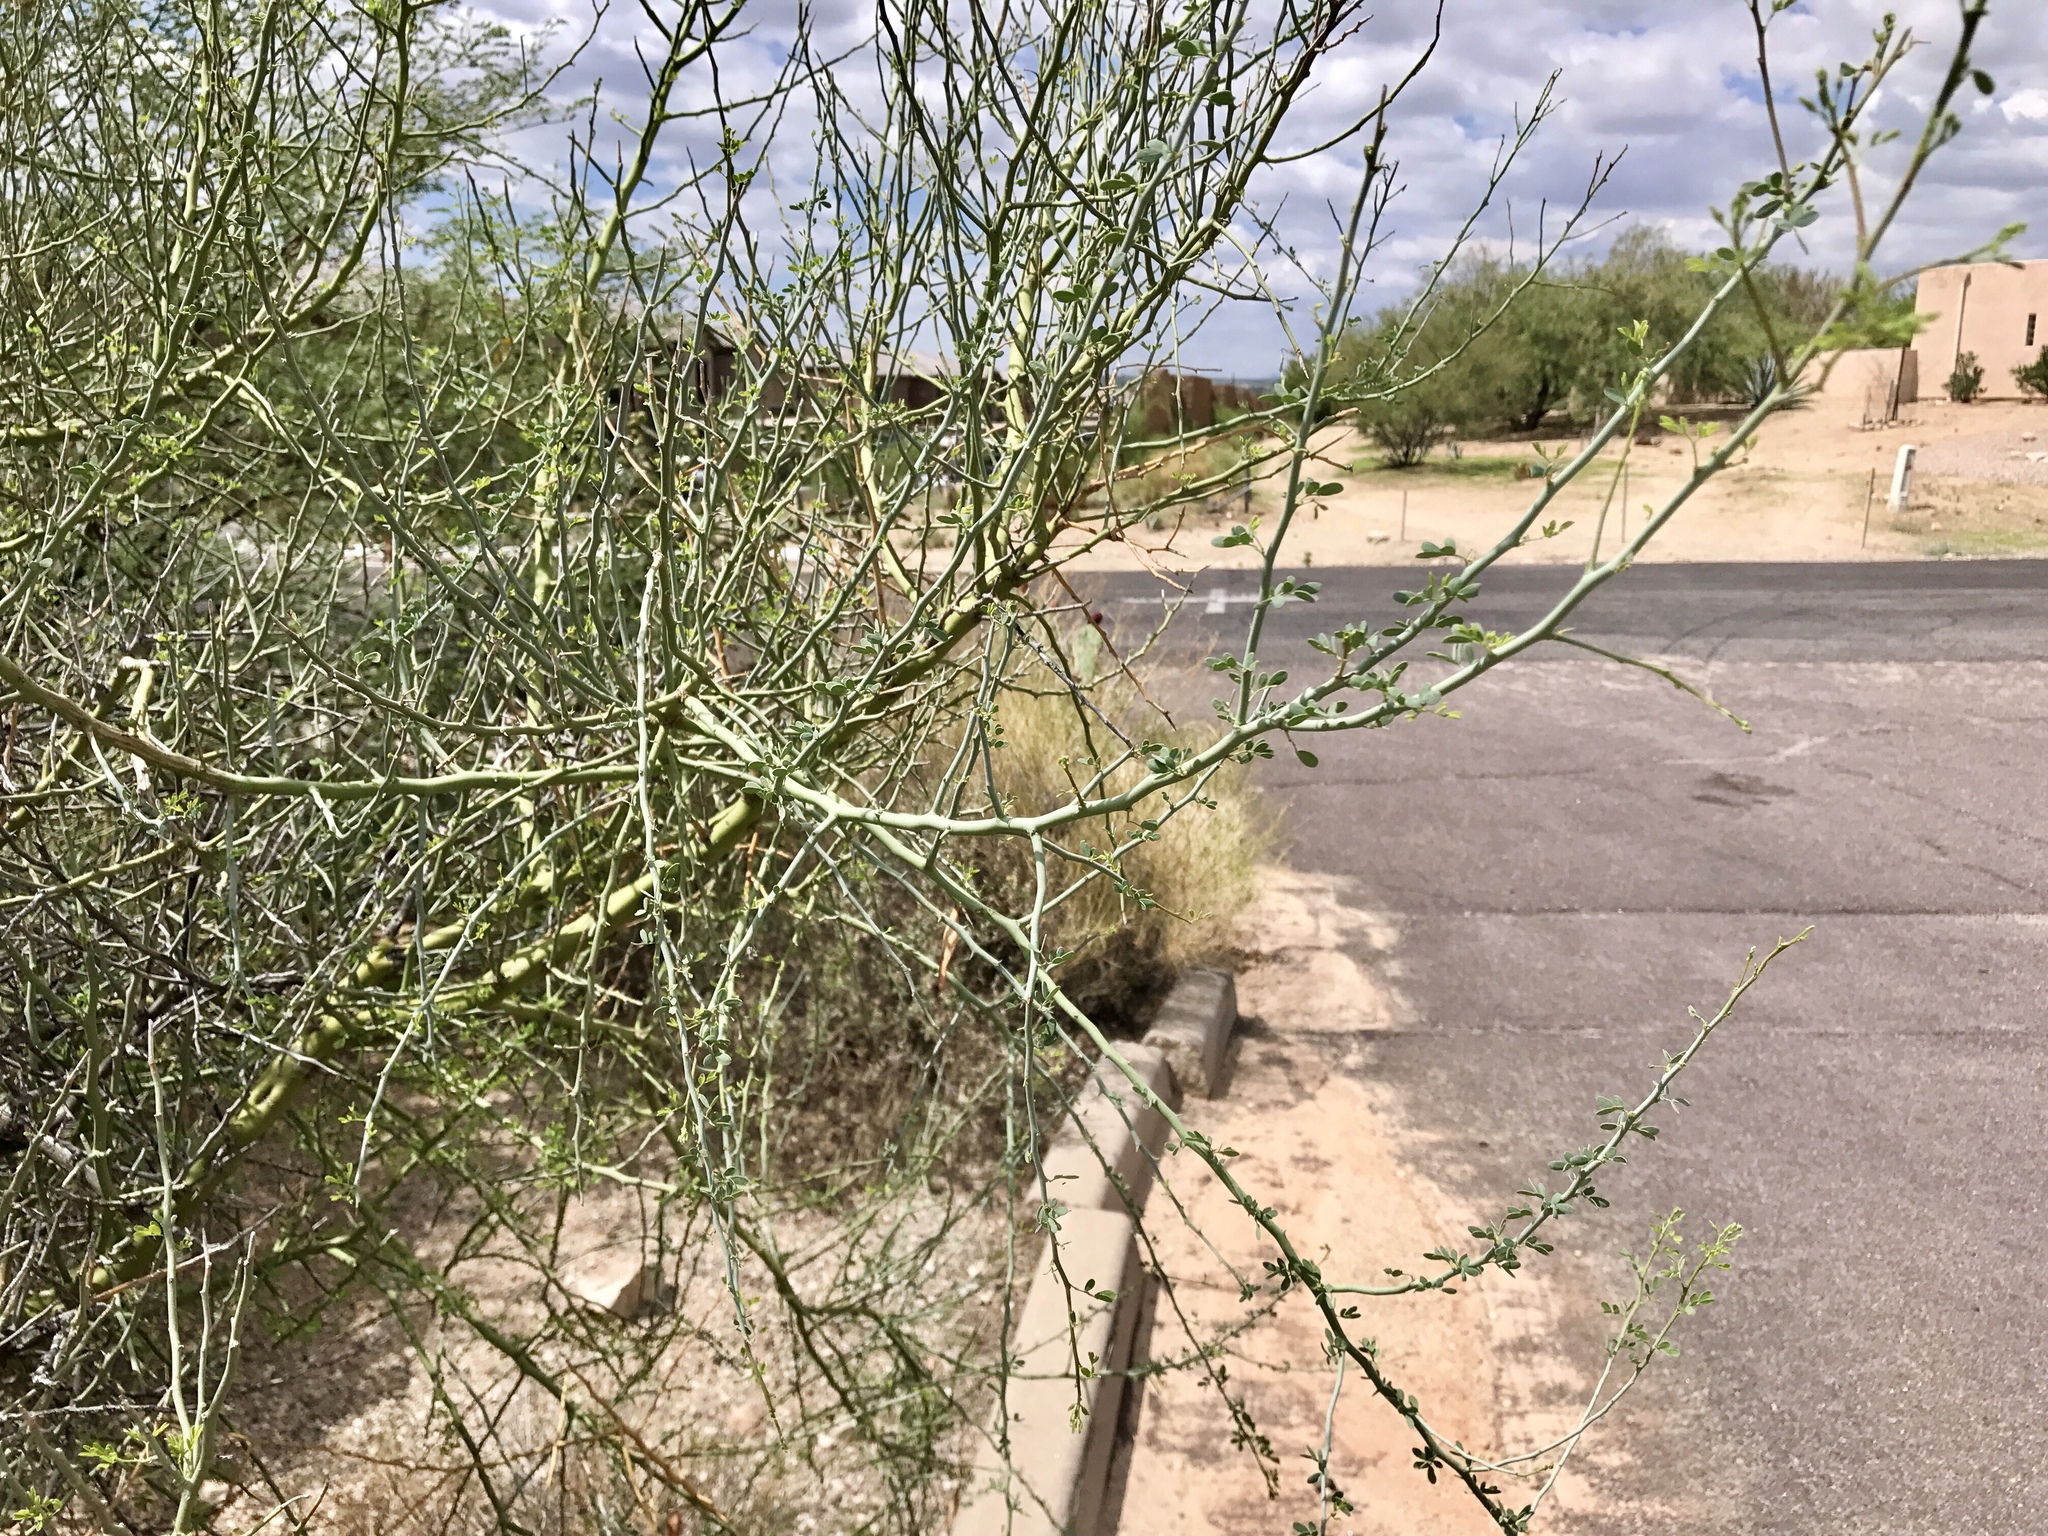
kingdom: Plantae
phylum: Tracheophyta
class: Magnoliopsida
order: Fabales
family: Fabaceae
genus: Parkinsonia
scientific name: Parkinsonia florida
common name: Blue paloverde
